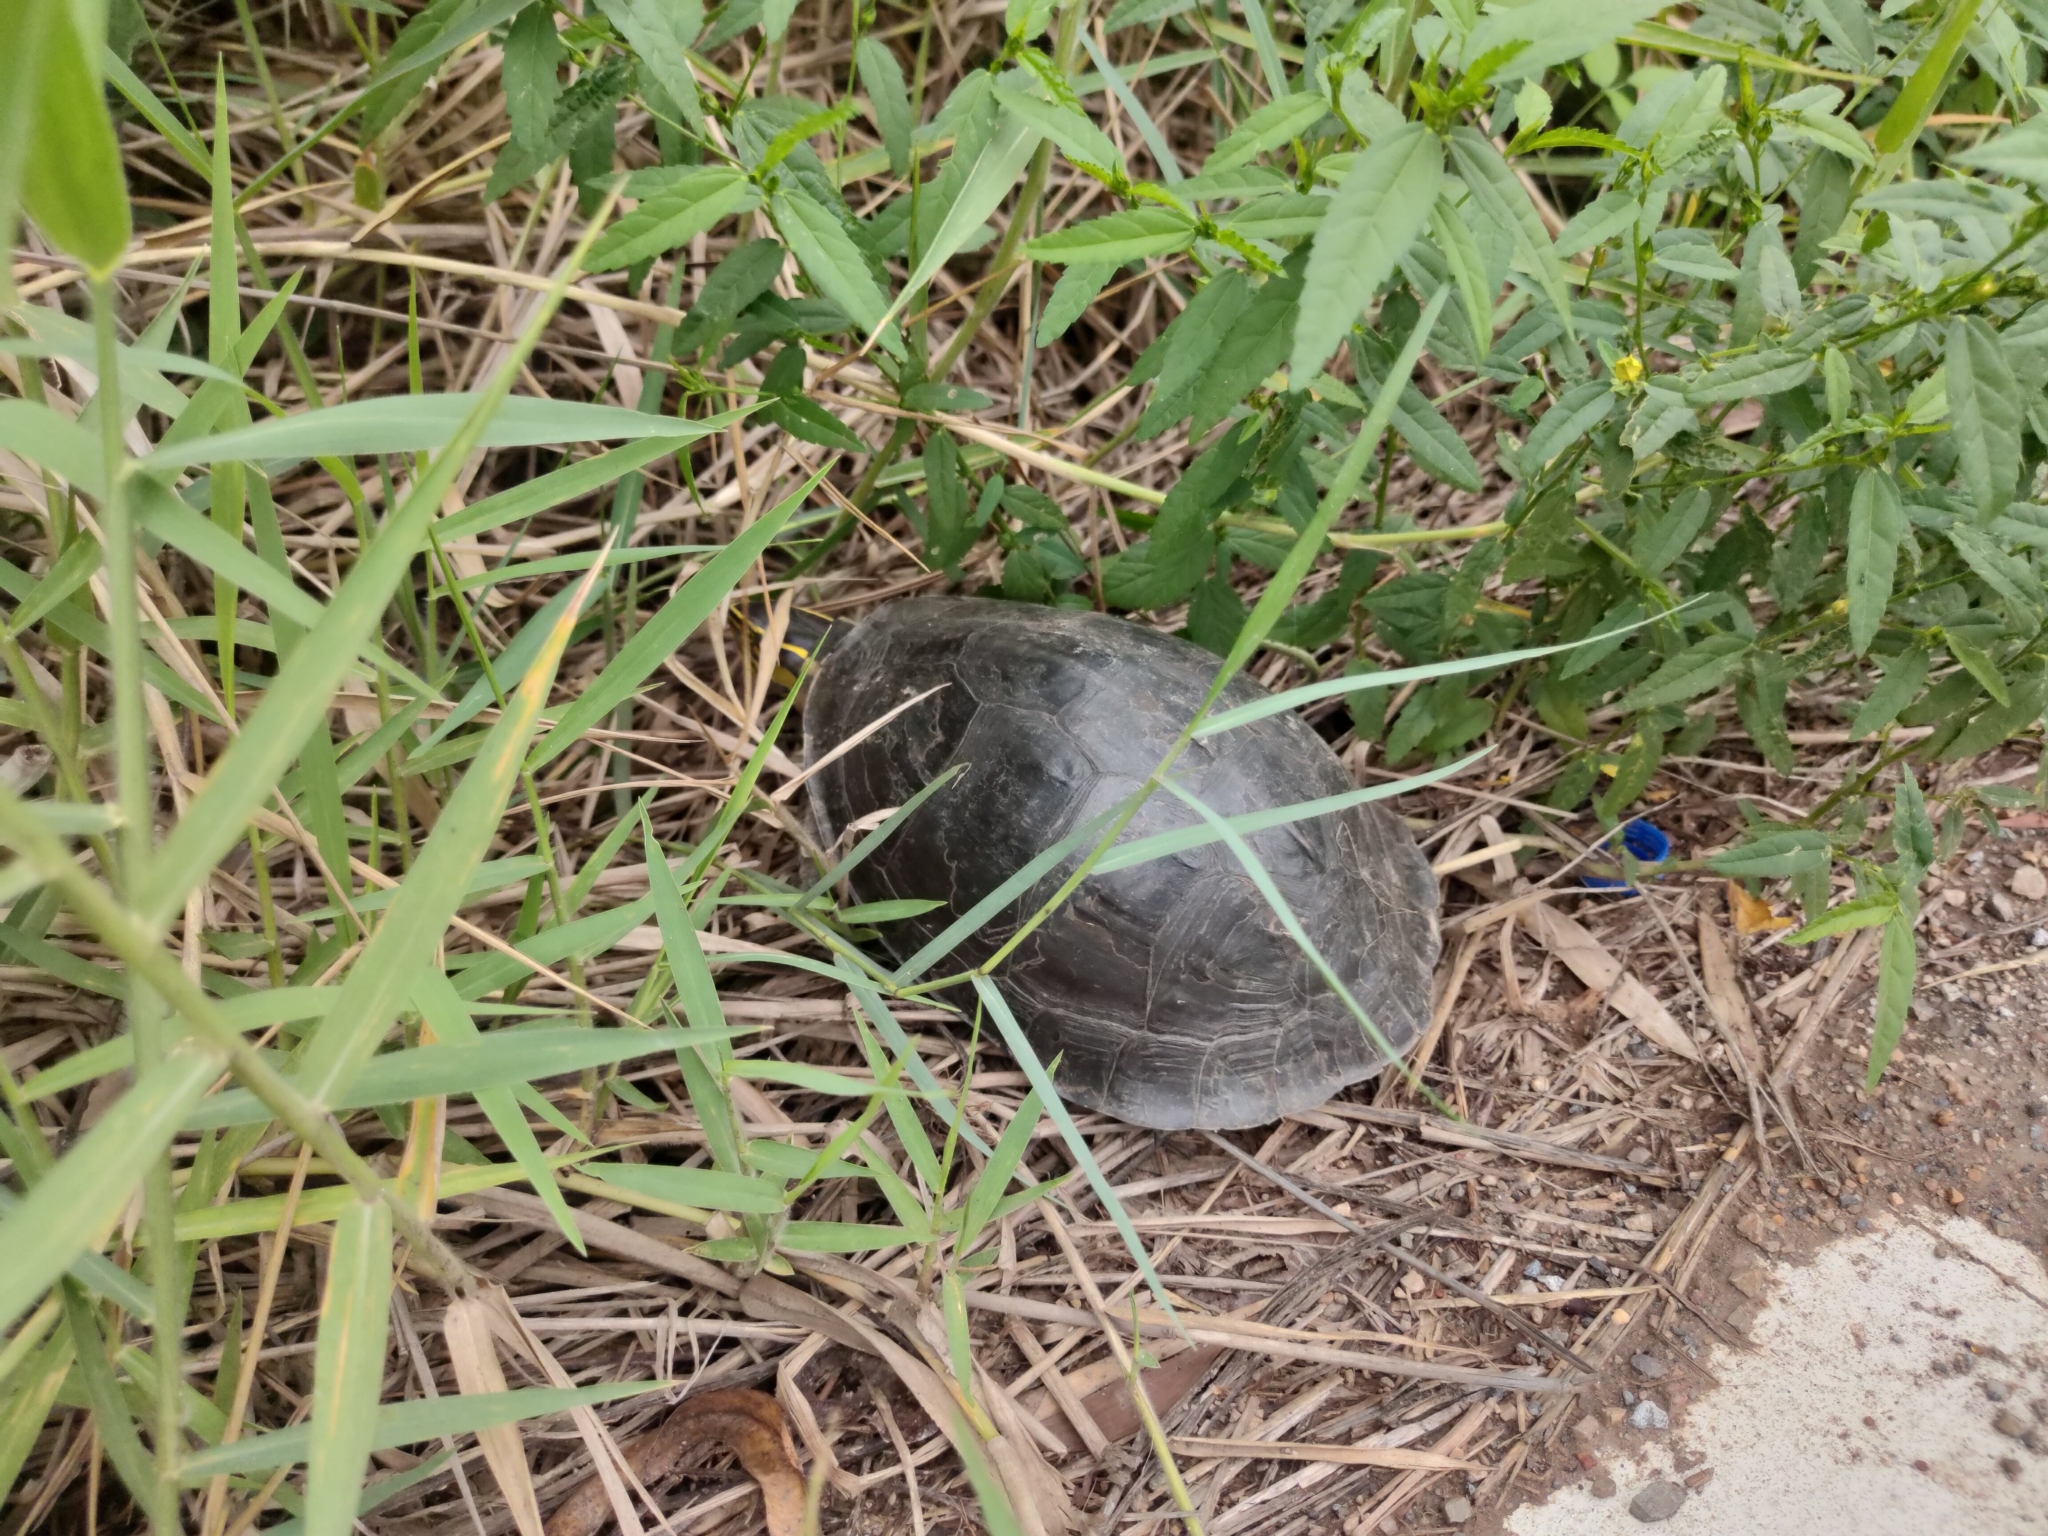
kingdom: Animalia
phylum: Chordata
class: Testudines
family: Geoemydidae
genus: Cuora
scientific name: Cuora
